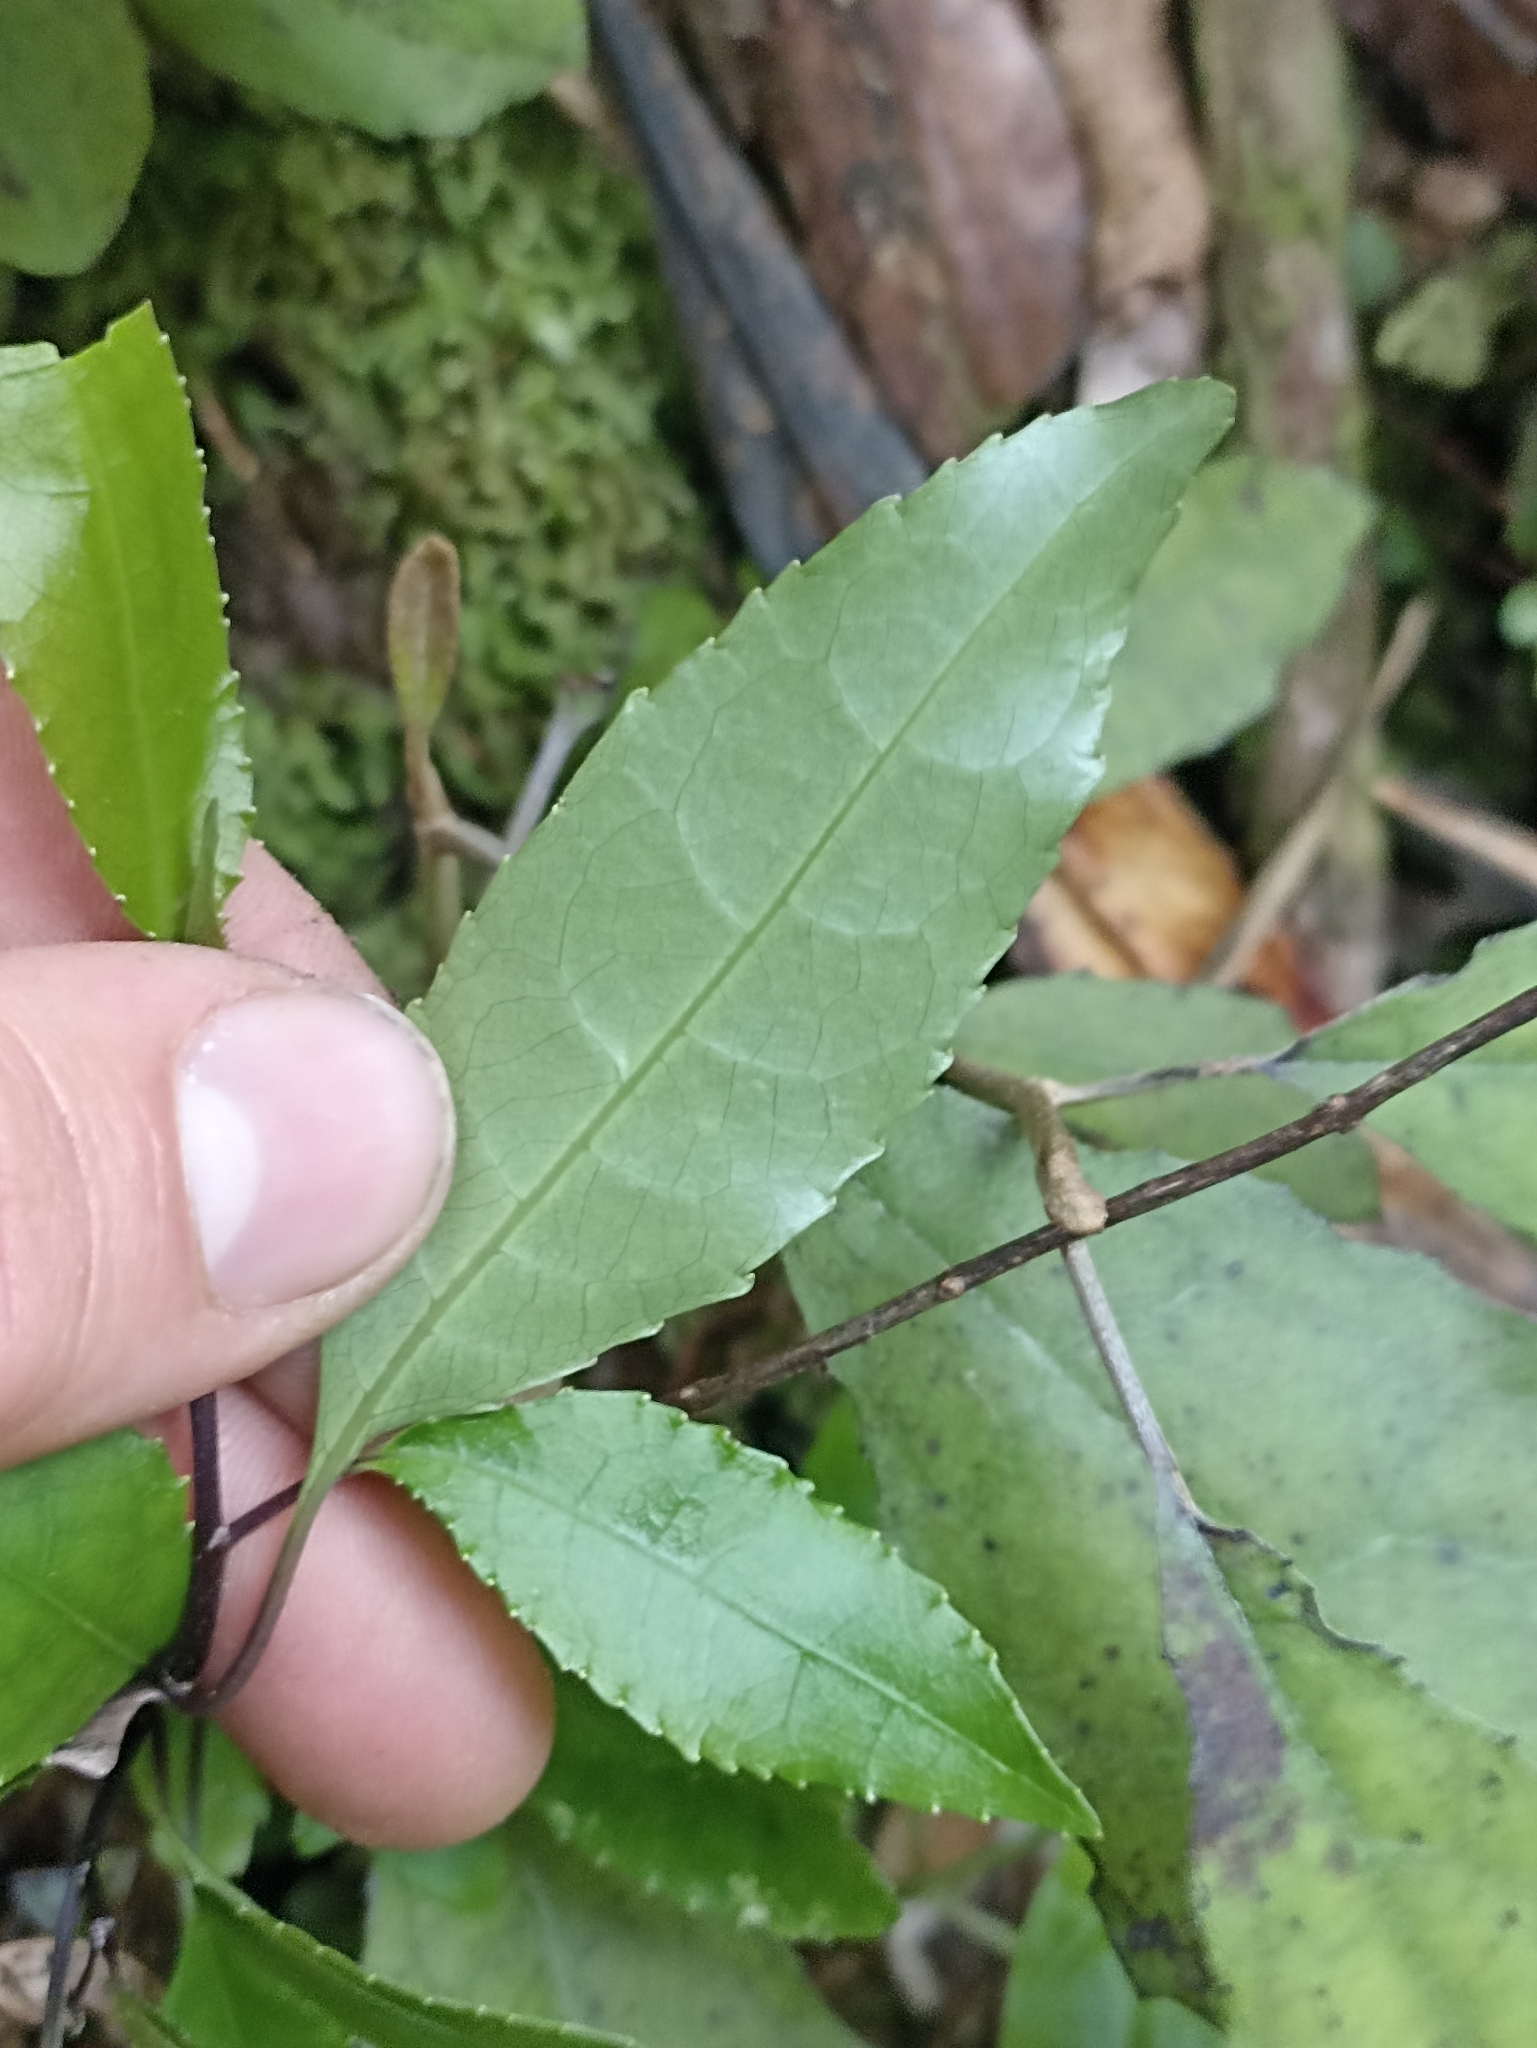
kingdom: Plantae
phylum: Tracheophyta
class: Magnoliopsida
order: Malpighiales
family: Violaceae
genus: Melicytus
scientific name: Melicytus ramiflorus
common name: Mahoe
